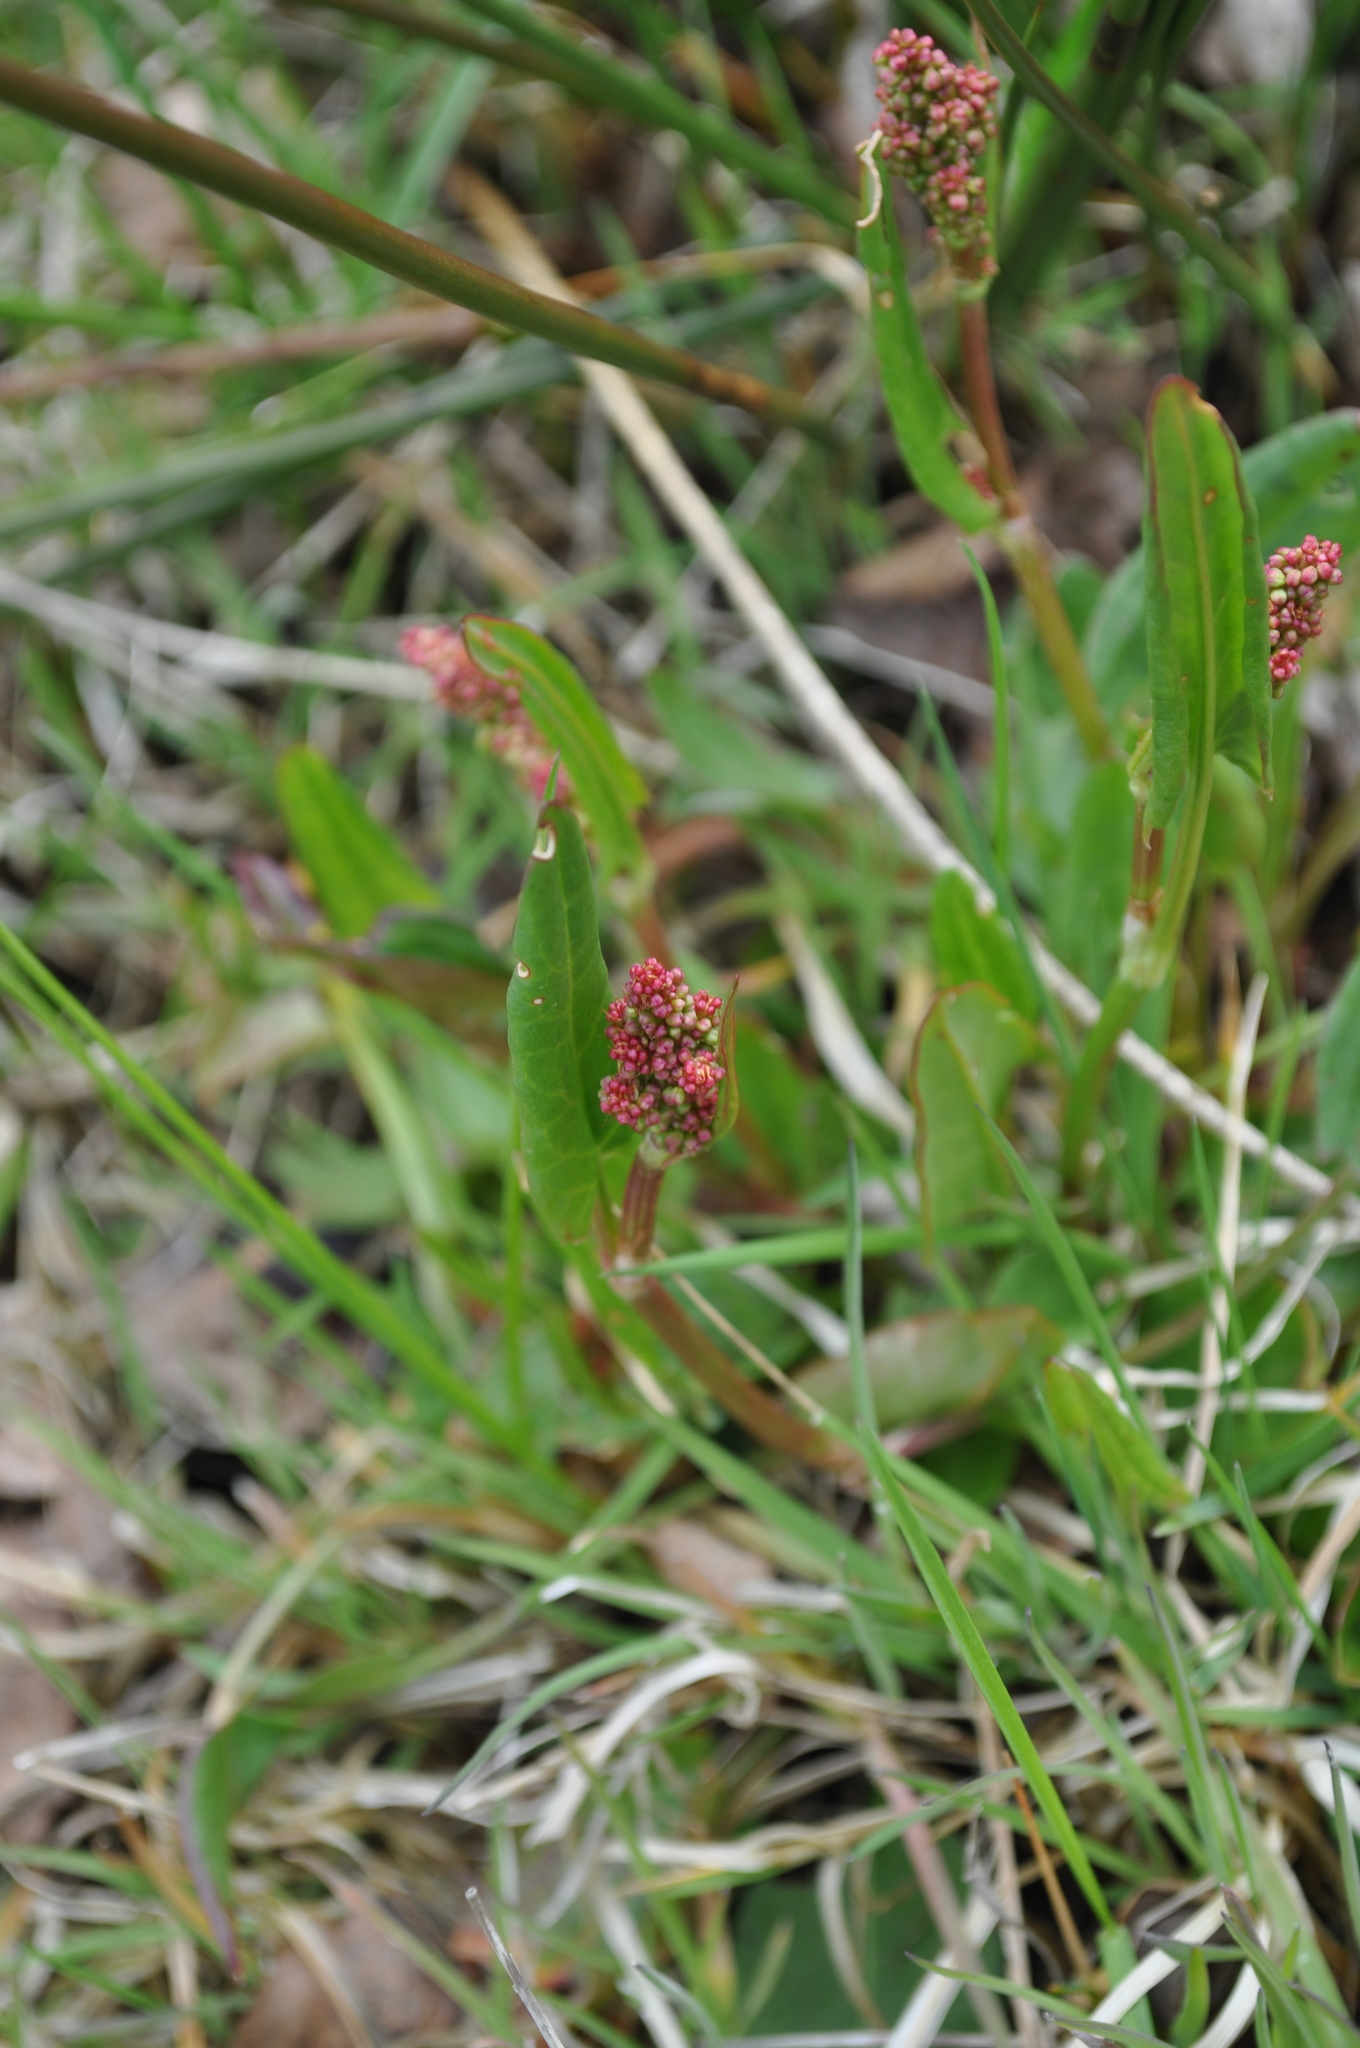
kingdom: Plantae
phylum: Tracheophyta
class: Magnoliopsida
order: Caryophyllales
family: Polygonaceae
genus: Rumex
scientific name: Rumex acetosa
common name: Garden sorrel
